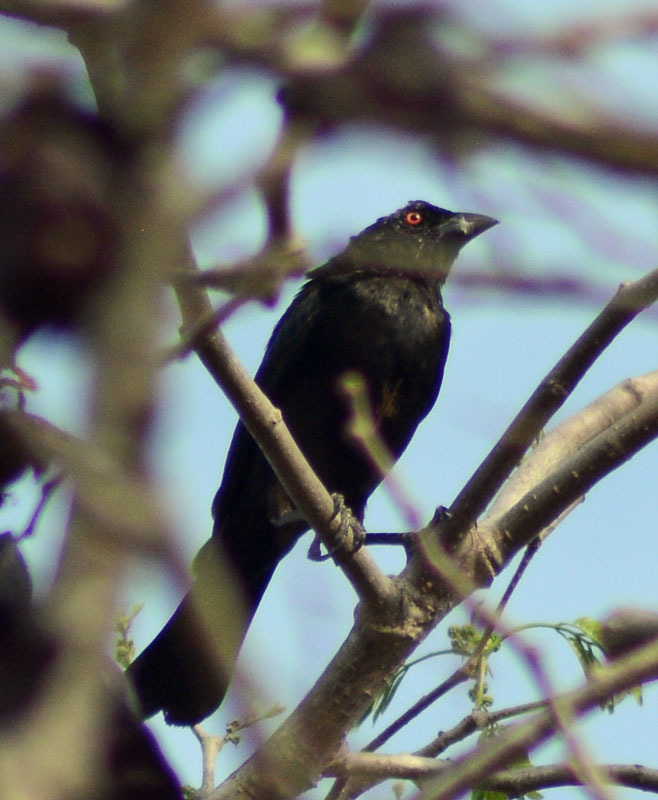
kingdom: Animalia
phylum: Chordata
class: Aves
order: Passeriformes
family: Icteridae
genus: Molothrus
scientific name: Molothrus aeneus
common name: Bronzed cowbird
